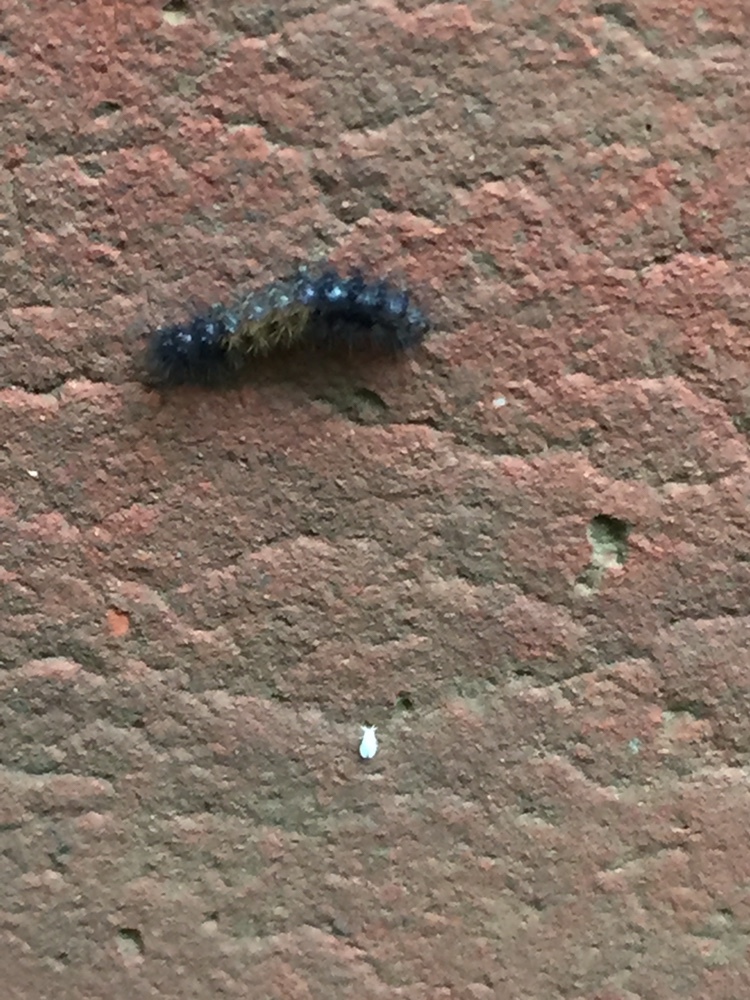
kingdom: Animalia
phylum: Arthropoda
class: Insecta
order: Lepidoptera
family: Erebidae
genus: Pyrrharctia
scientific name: Pyrrharctia isabella
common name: Isabella tiger moth
